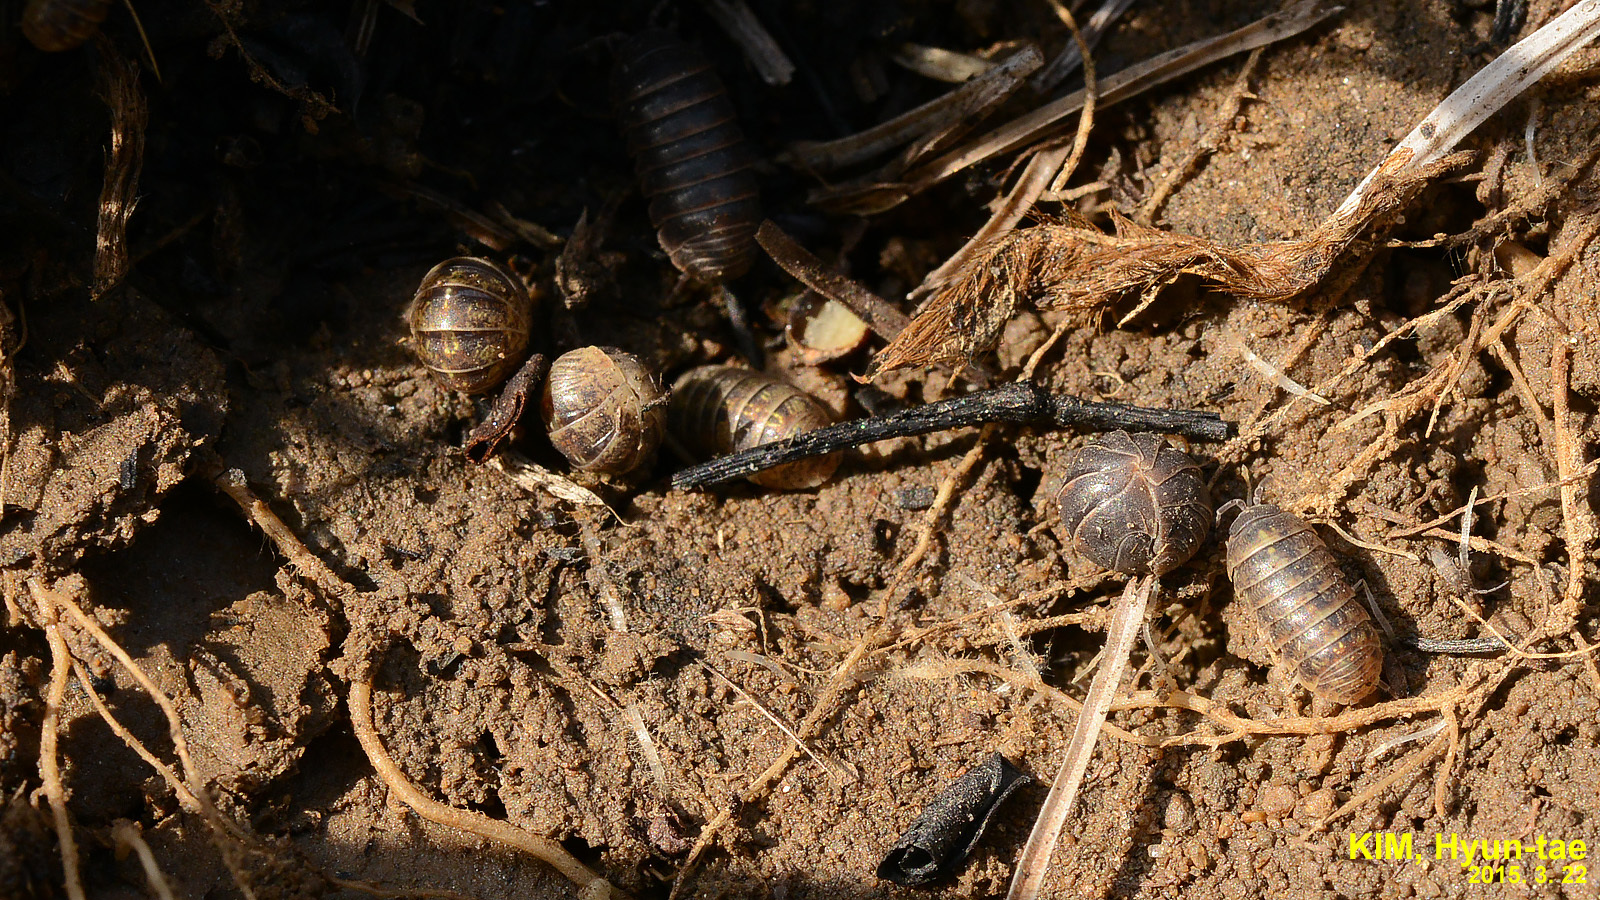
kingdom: Animalia
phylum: Arthropoda
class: Malacostraca
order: Isopoda
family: Armadillidiidae
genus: Armadillidium
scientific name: Armadillidium vulgare
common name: Common pill woodlouse
